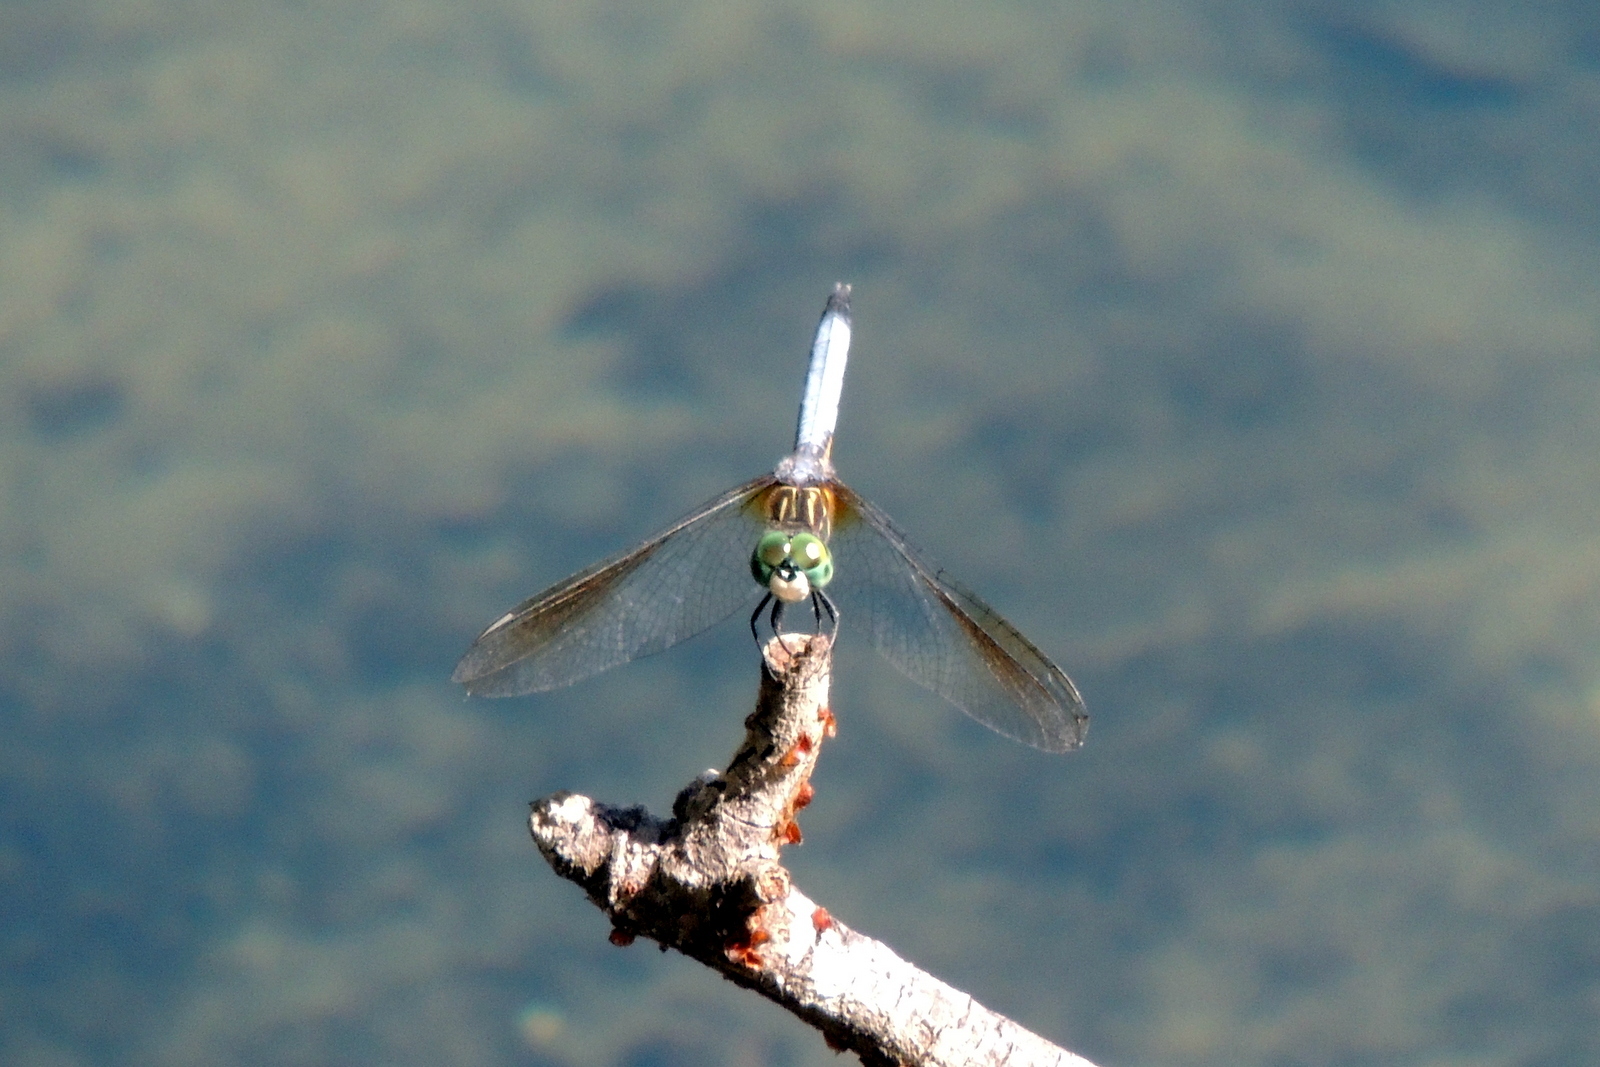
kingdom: Animalia
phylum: Arthropoda
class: Insecta
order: Odonata
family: Libellulidae
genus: Pachydiplax
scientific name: Pachydiplax longipennis
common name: Blue dasher
